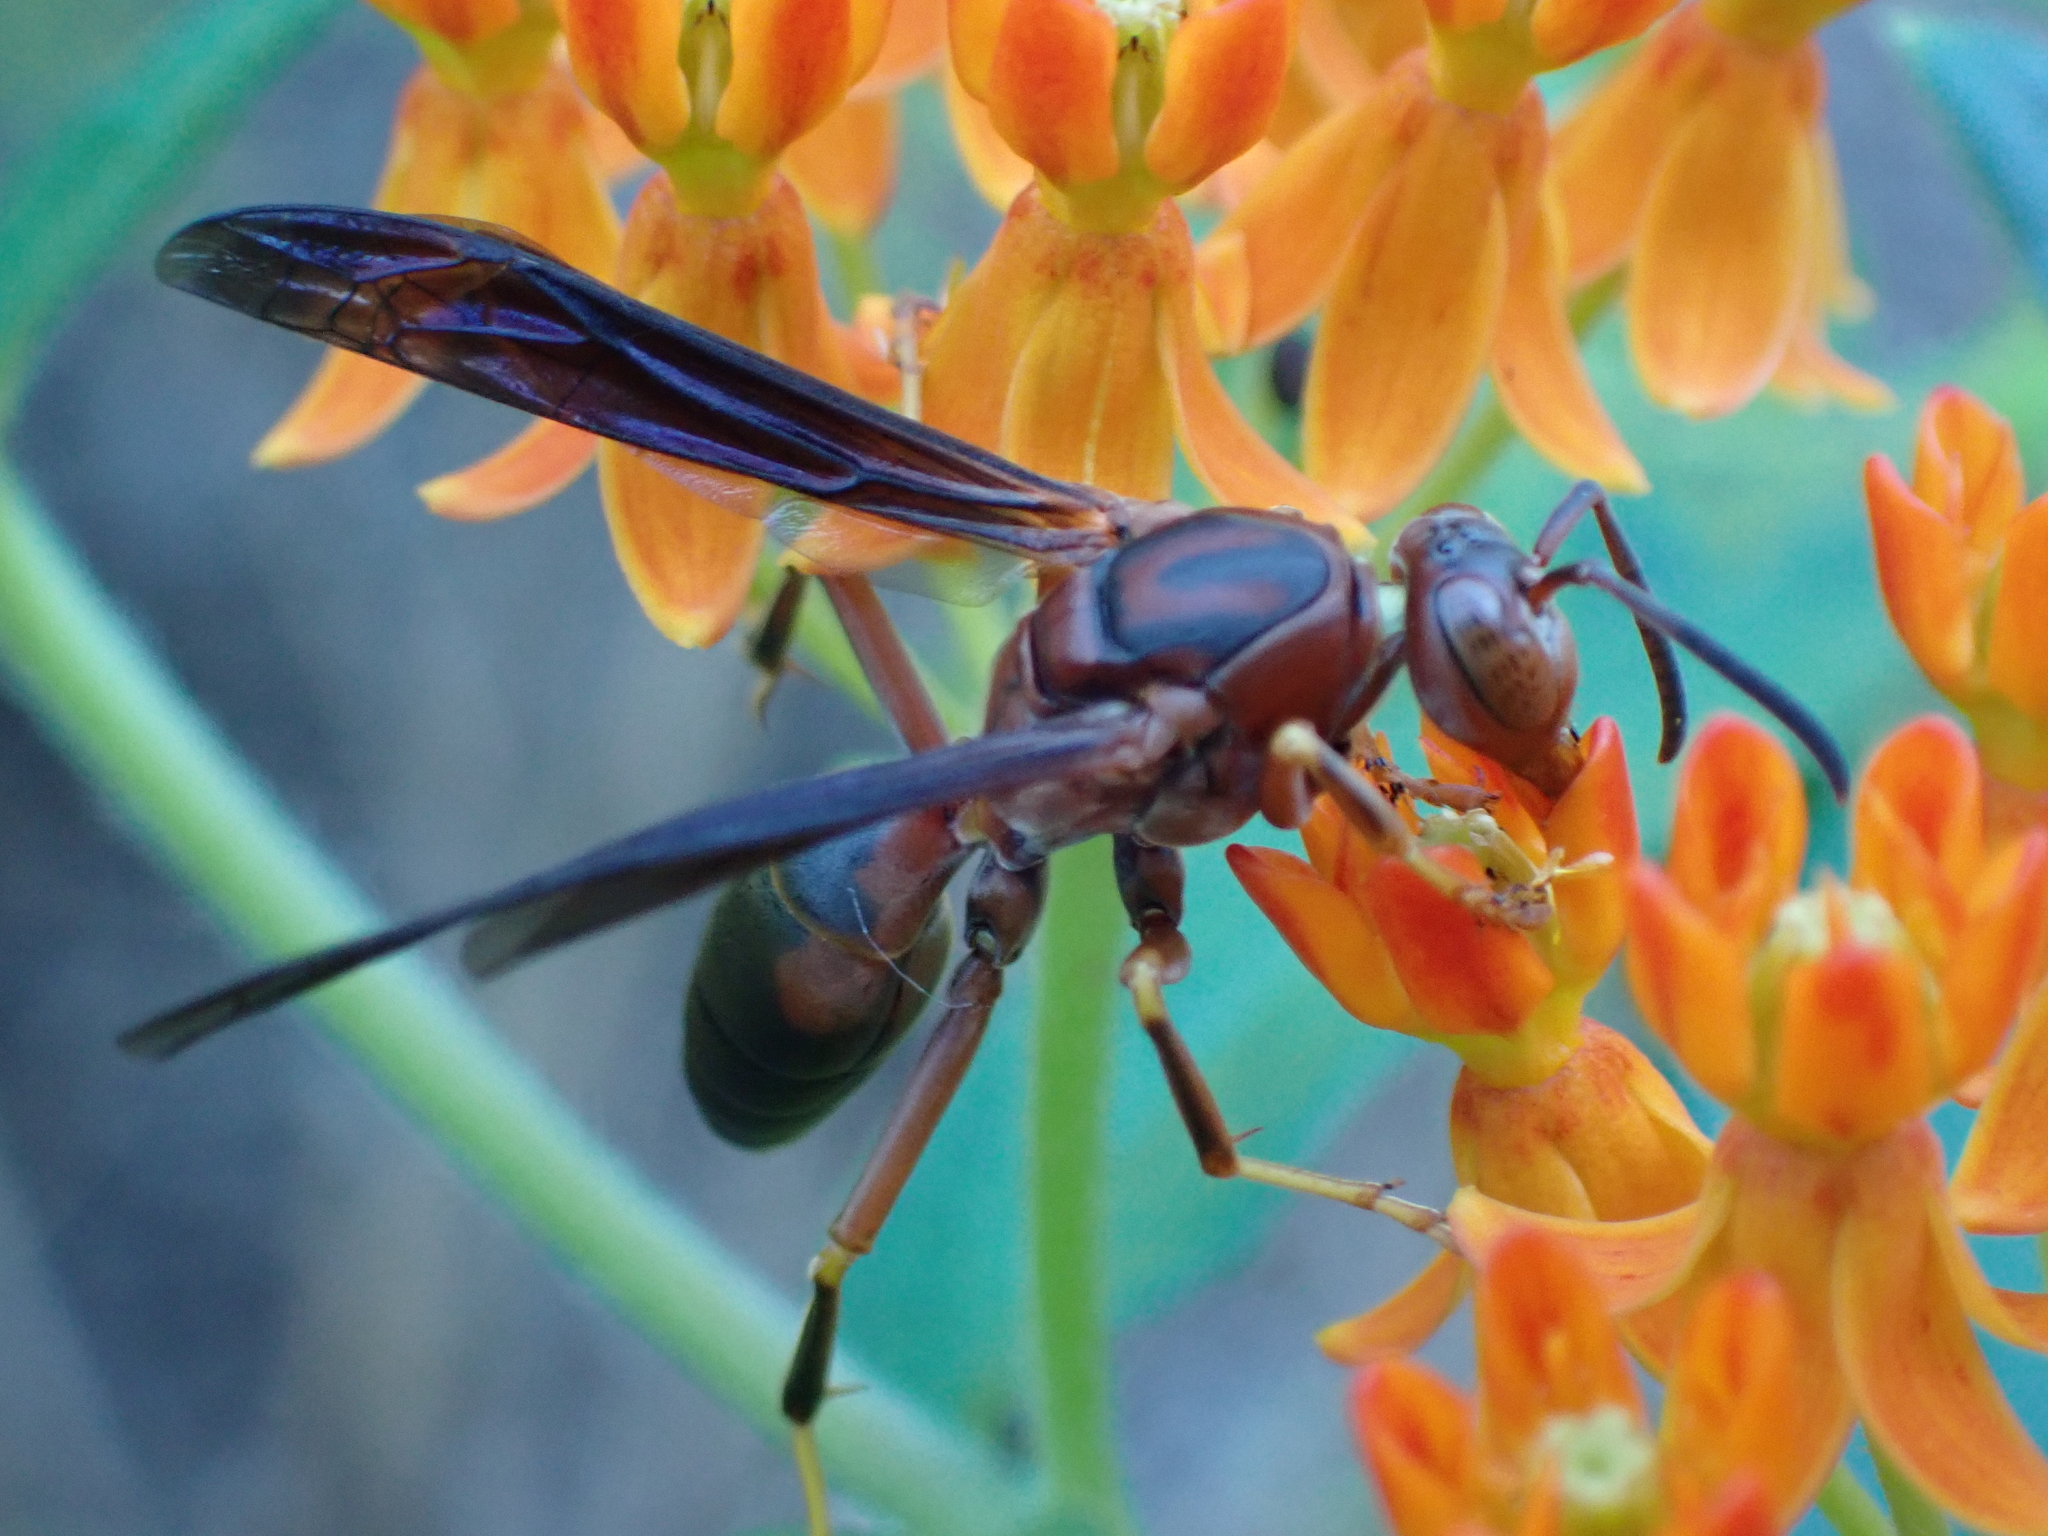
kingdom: Animalia
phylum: Arthropoda
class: Insecta
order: Hymenoptera
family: Eumenidae
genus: Polistes
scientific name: Polistes metricus
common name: Metric paper wasp
